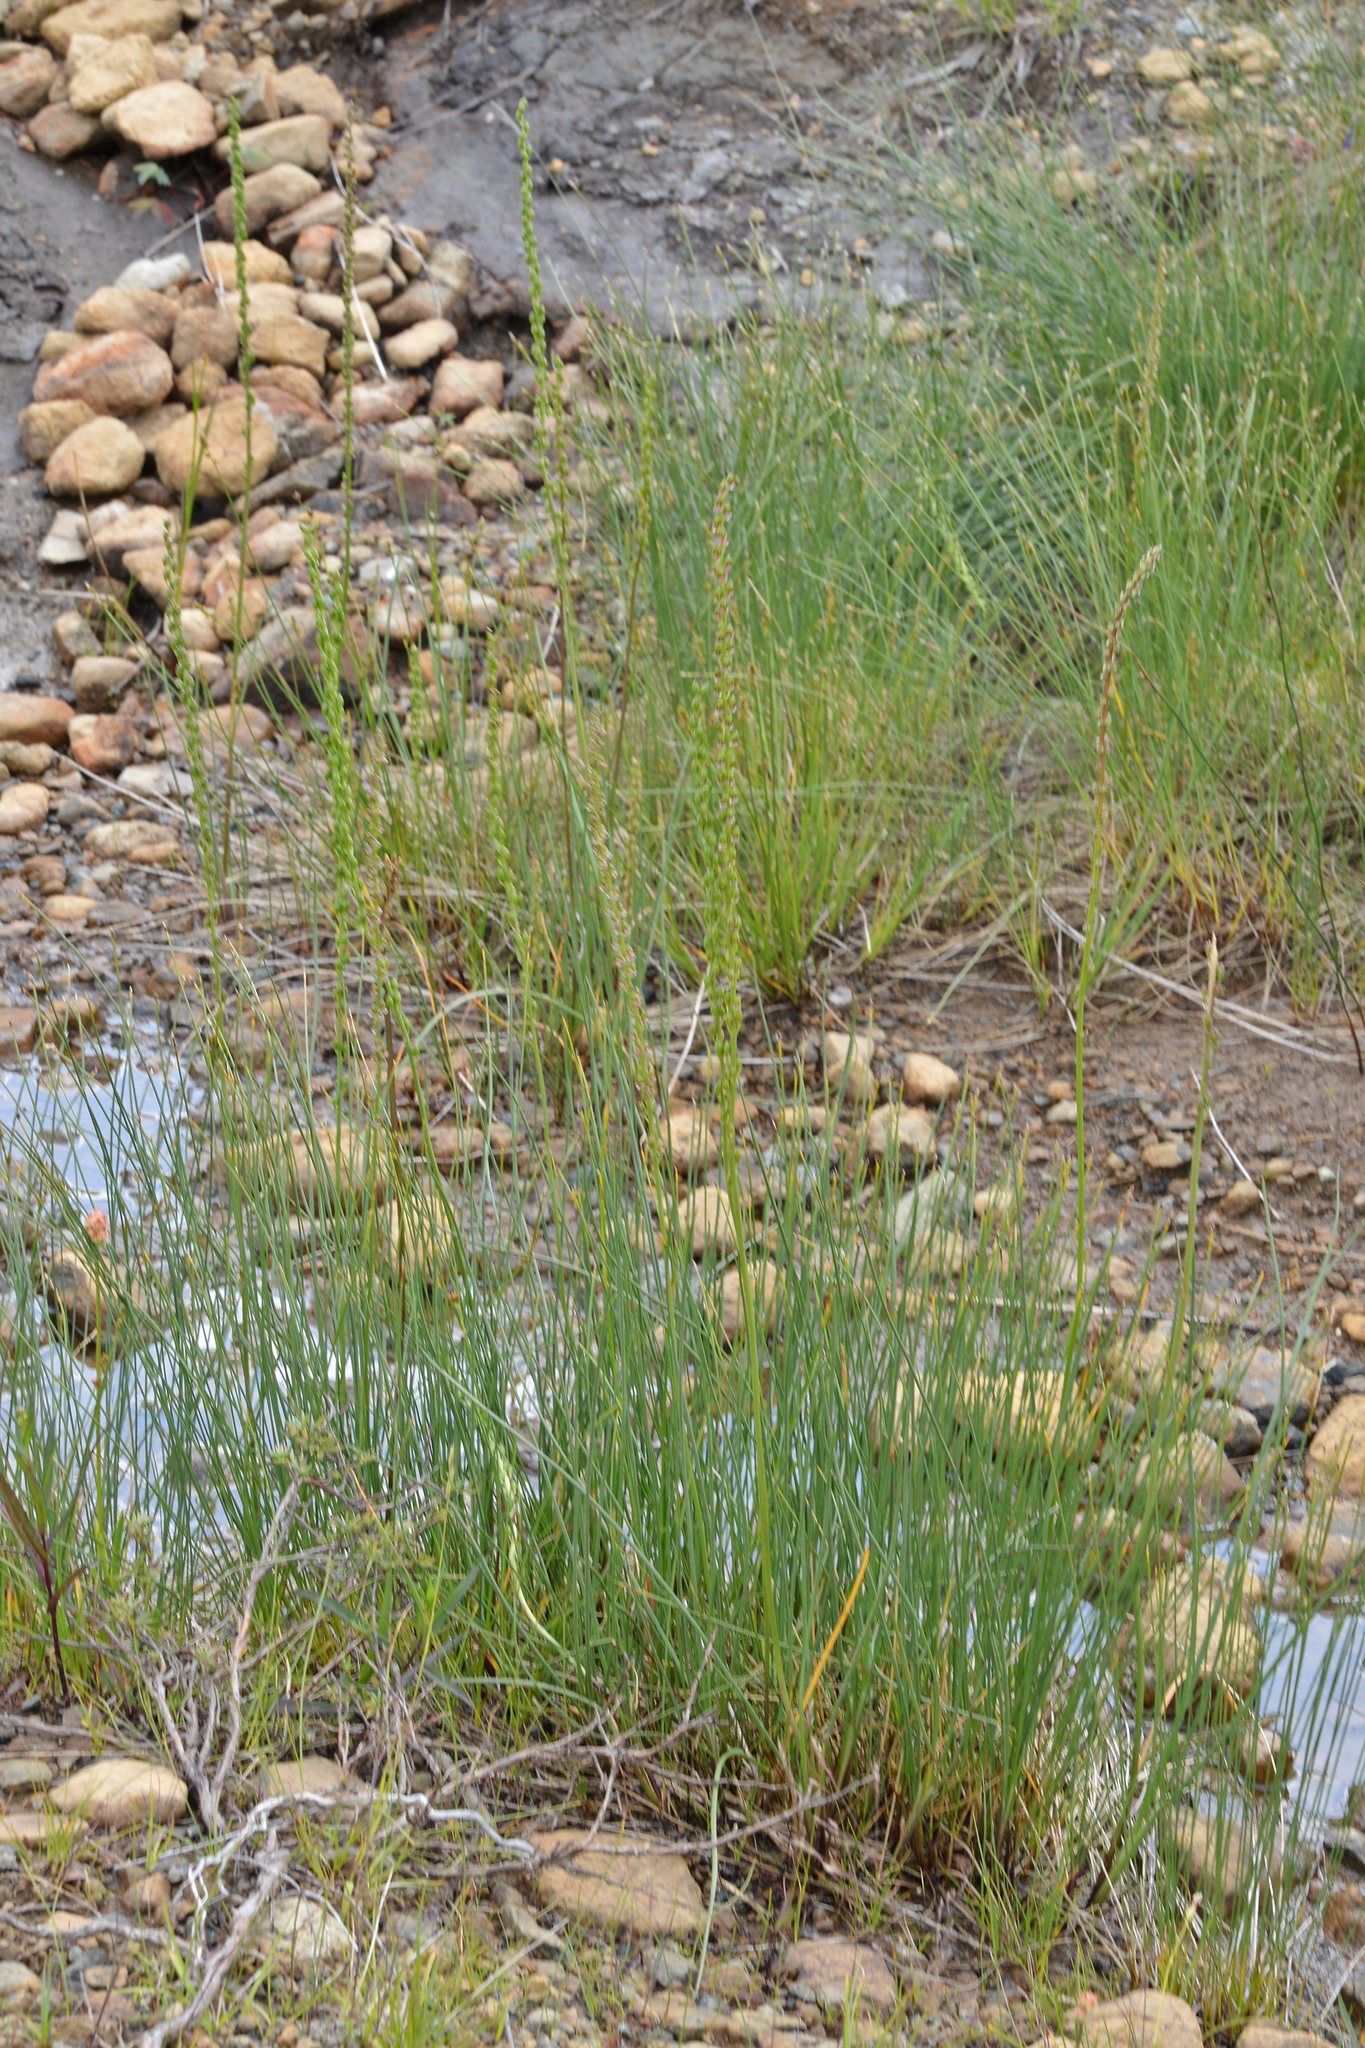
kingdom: Plantae
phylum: Tracheophyta
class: Liliopsida
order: Alismatales
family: Juncaginaceae
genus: Triglochin
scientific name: Triglochin maritima
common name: Sea arrowgrass
